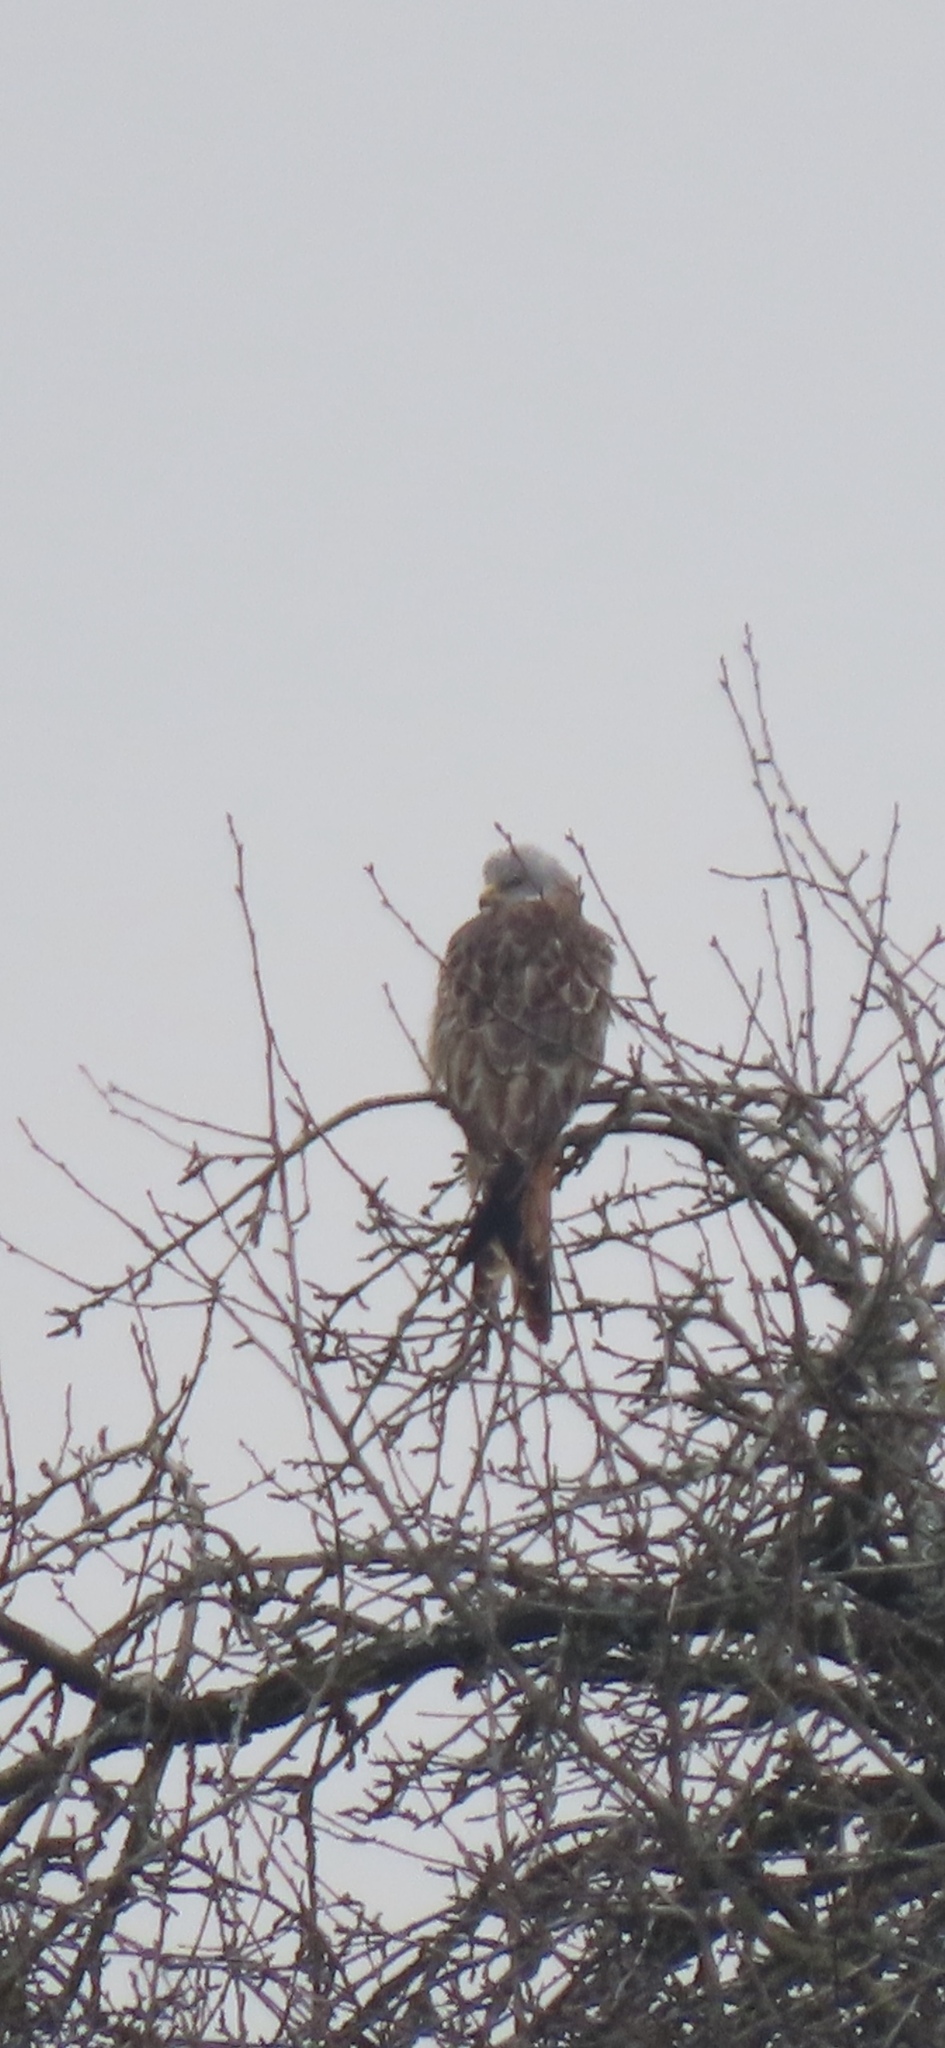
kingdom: Animalia
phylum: Chordata
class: Aves
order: Accipitriformes
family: Accipitridae
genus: Milvus
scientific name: Milvus milvus
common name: Red kite
